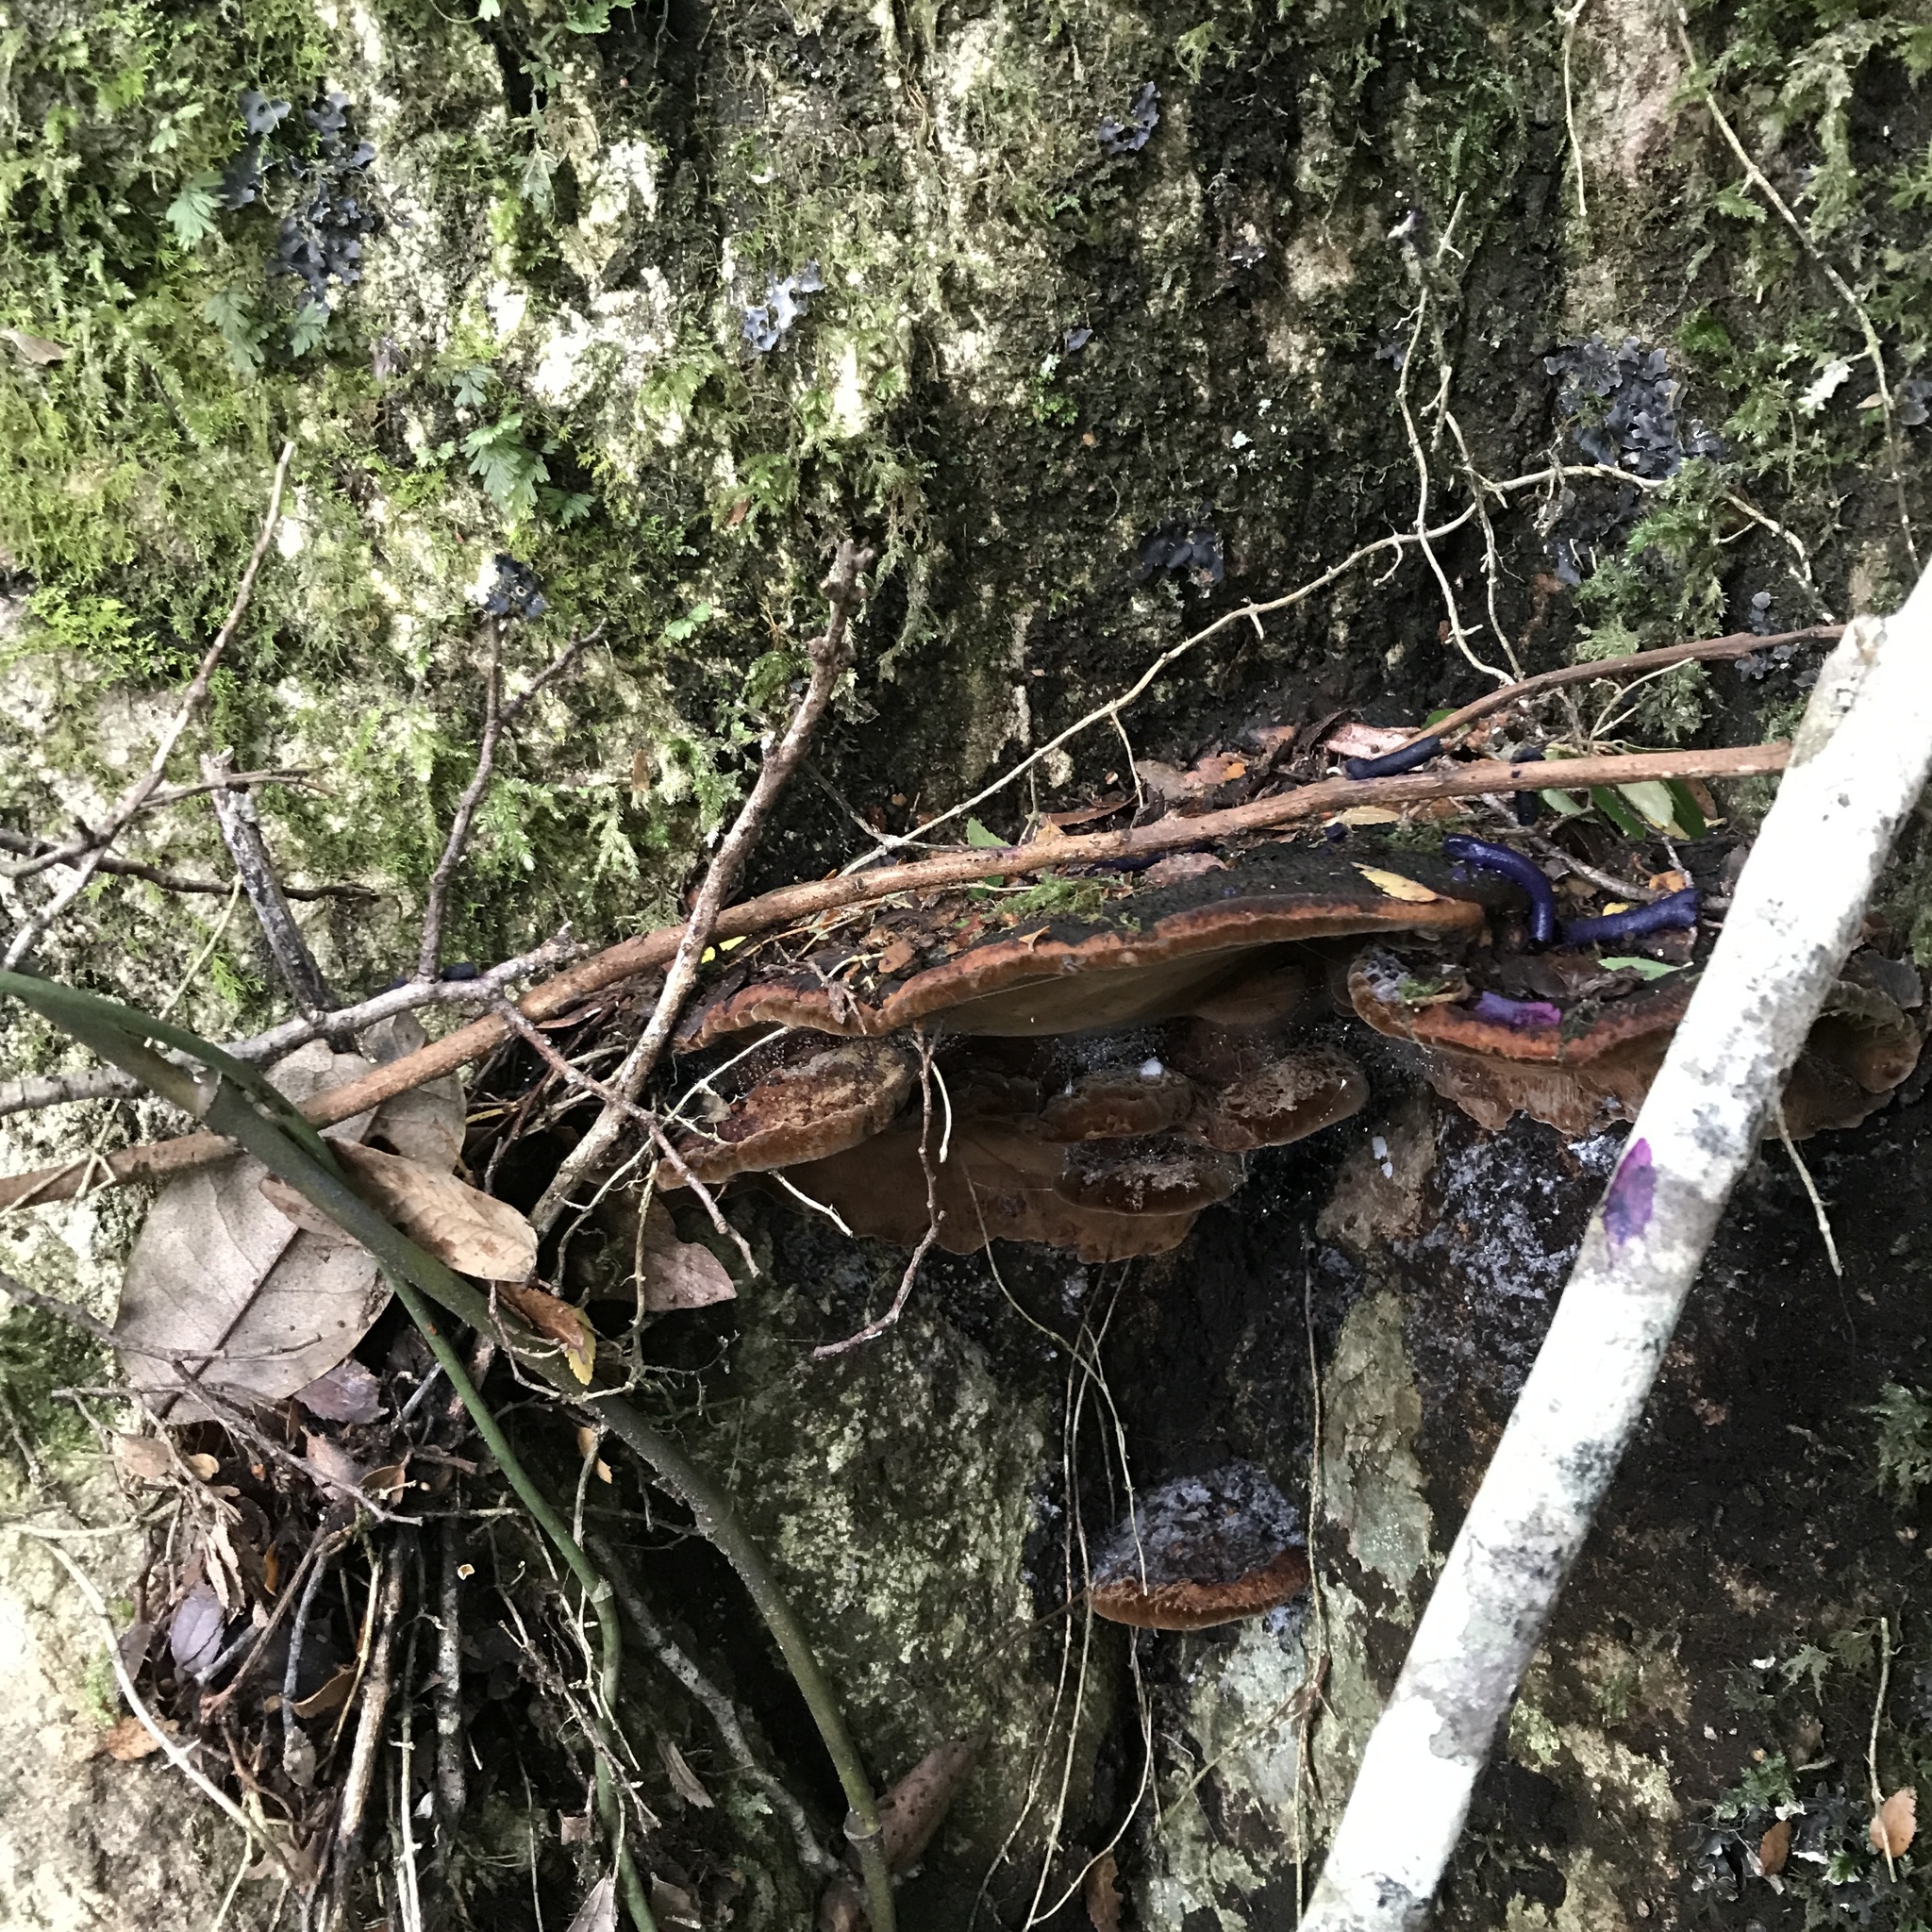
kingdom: Fungi
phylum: Basidiomycota
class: Agaricomycetes
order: Hymenochaetales
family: Hymenochaetaceae
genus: Fuscoporia
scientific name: Fuscoporia senex
